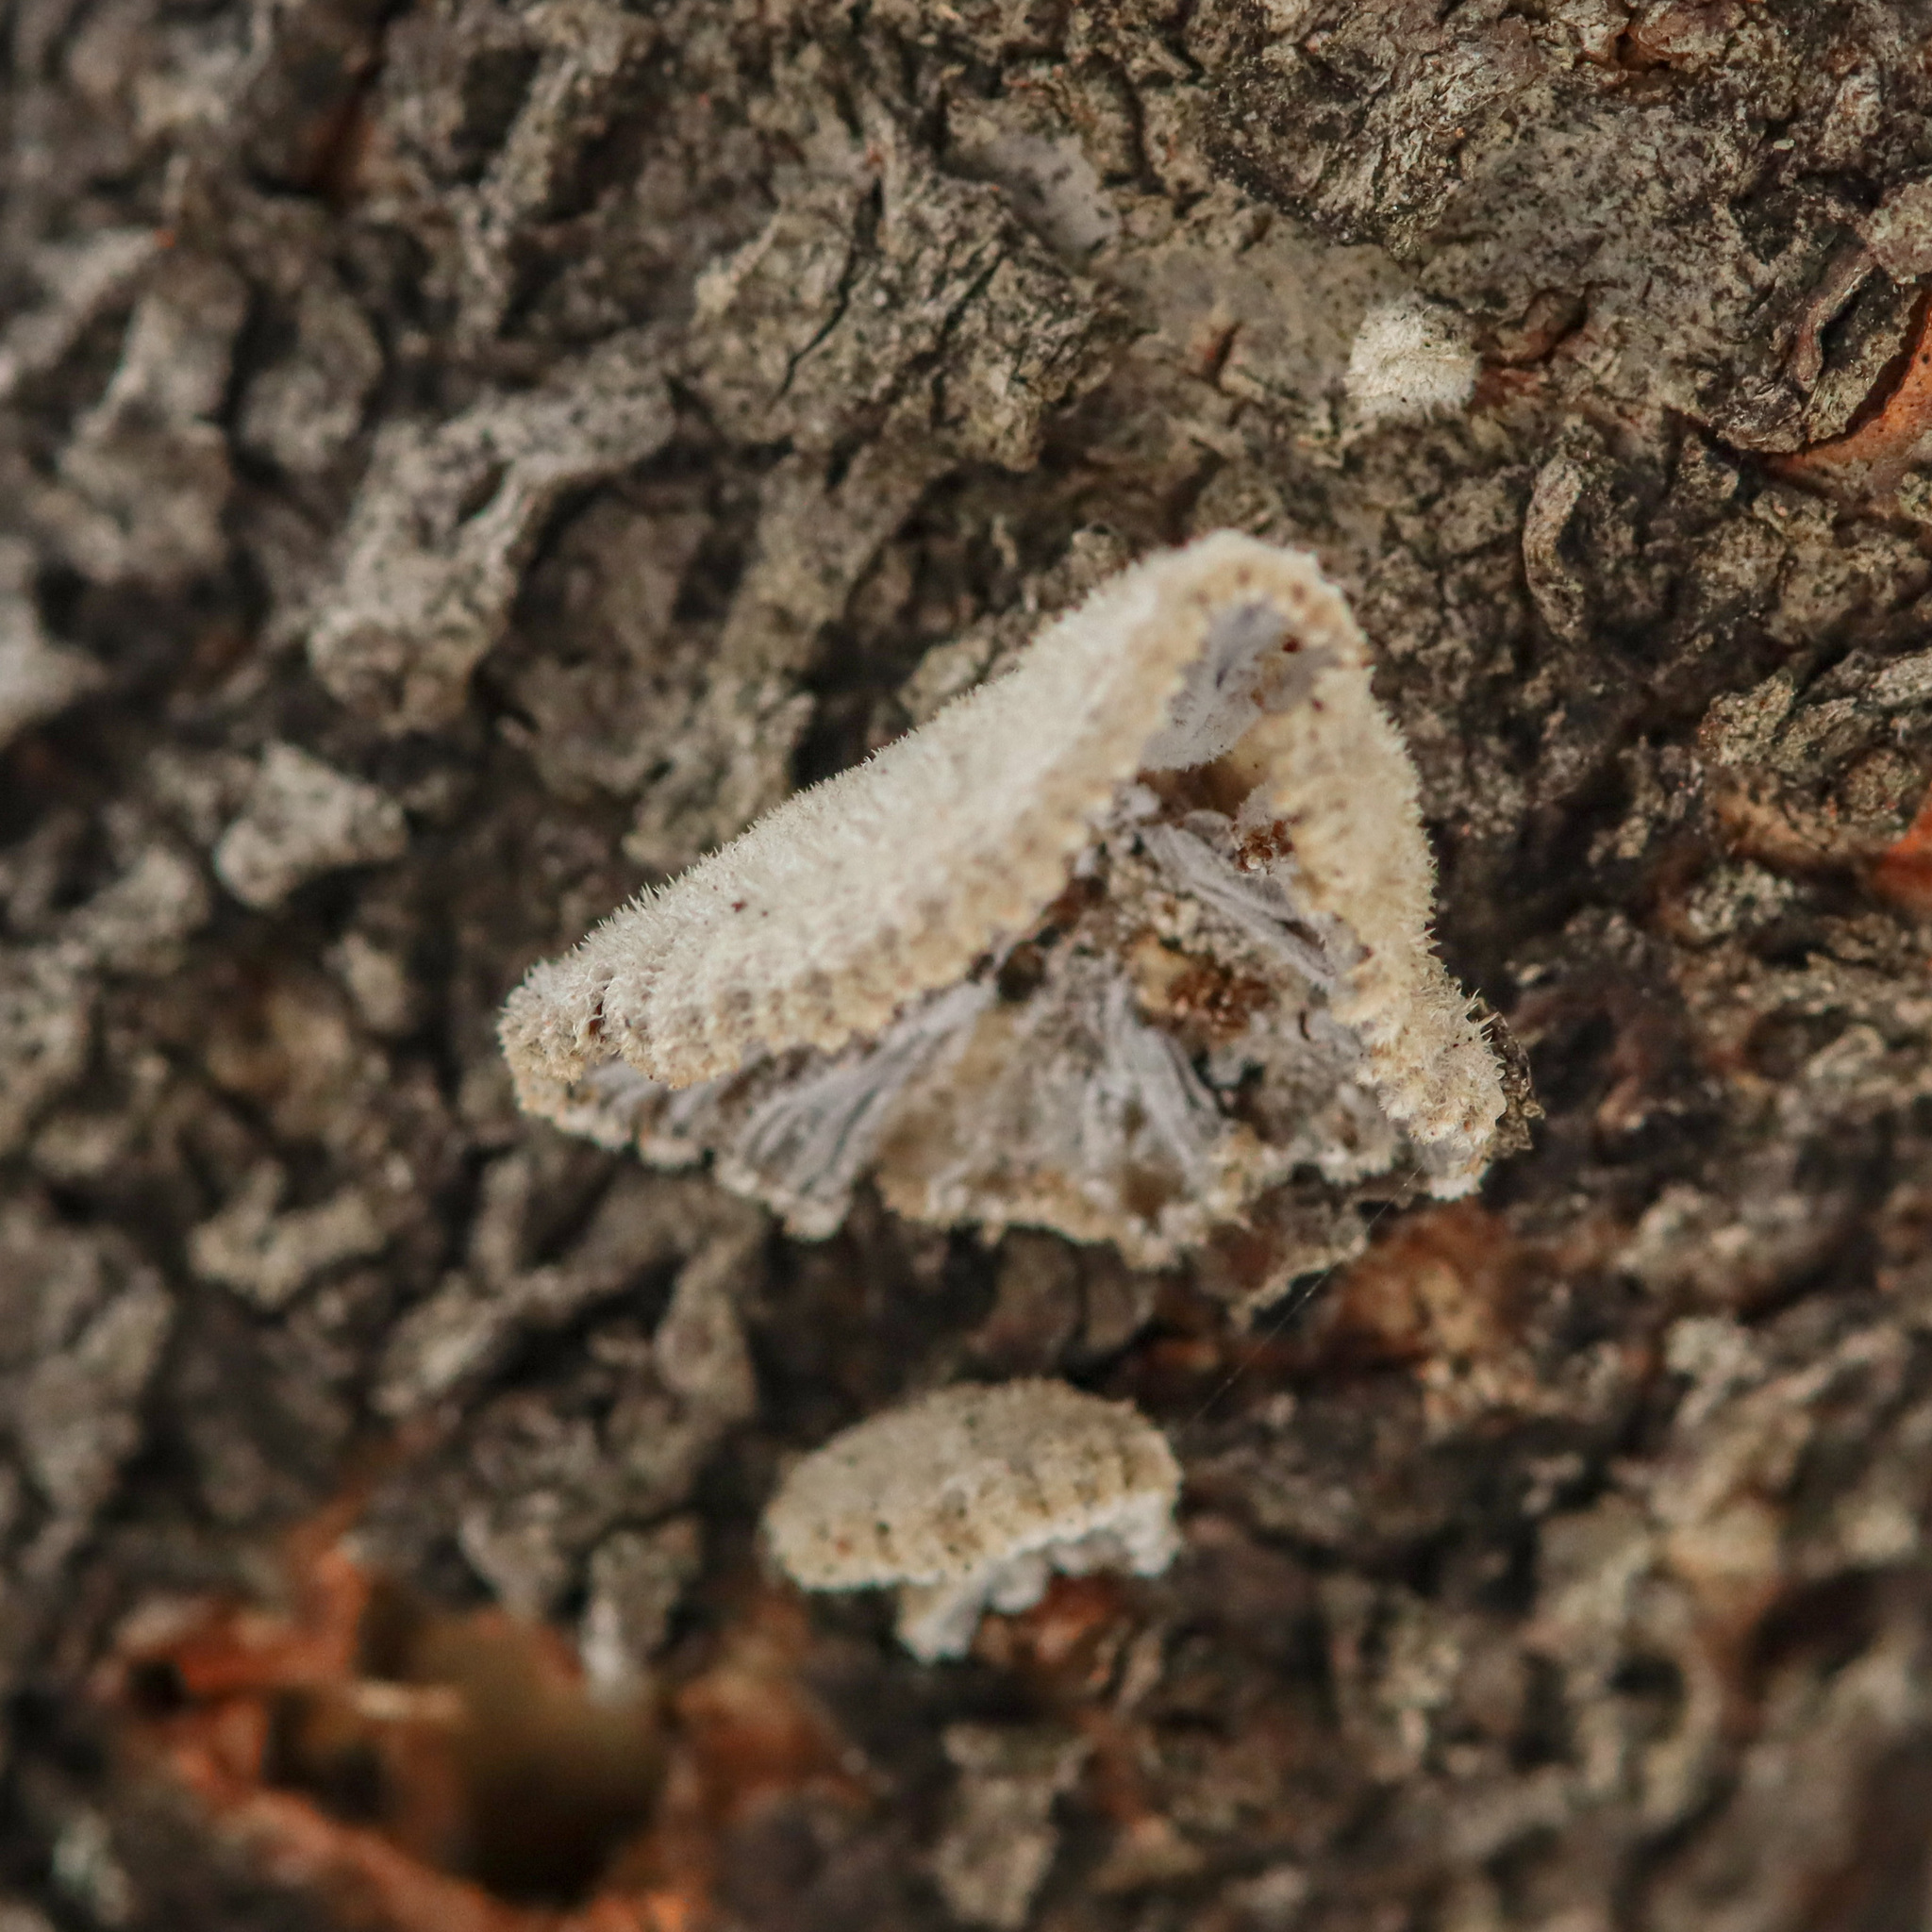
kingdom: Fungi
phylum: Basidiomycota
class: Agaricomycetes
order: Agaricales
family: Schizophyllaceae
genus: Schizophyllum
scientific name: Schizophyllum commune
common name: Common porecrust
